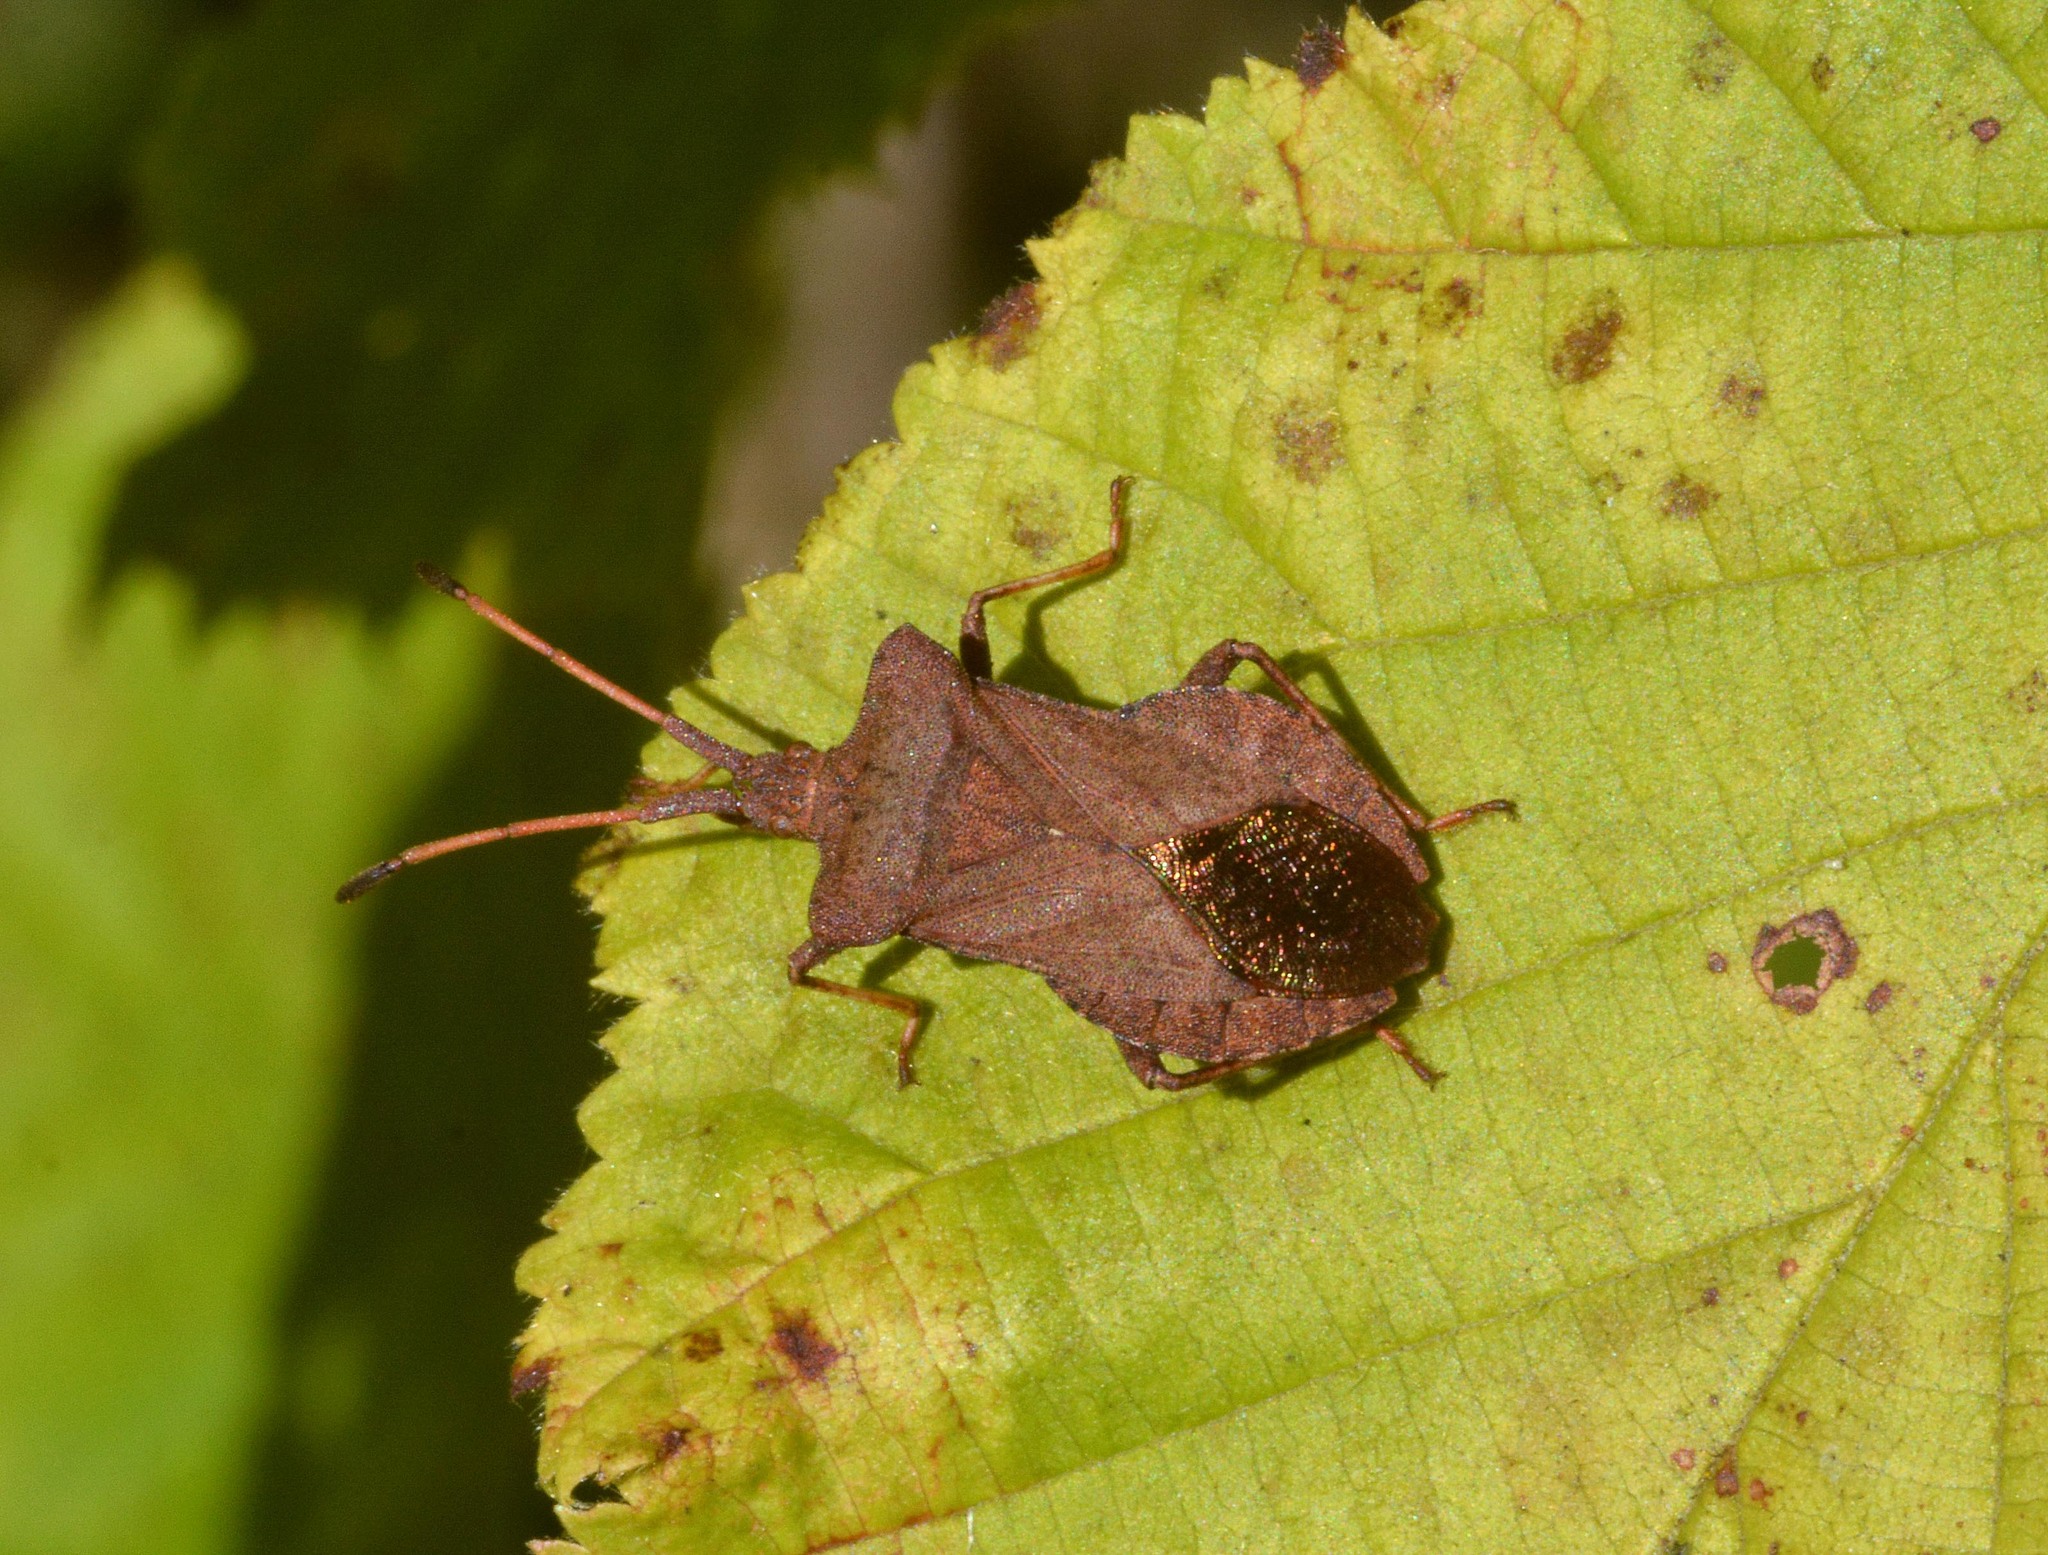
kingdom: Animalia
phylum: Arthropoda
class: Insecta
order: Hemiptera
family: Coreidae
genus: Coreus
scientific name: Coreus marginatus
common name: Dock bug
